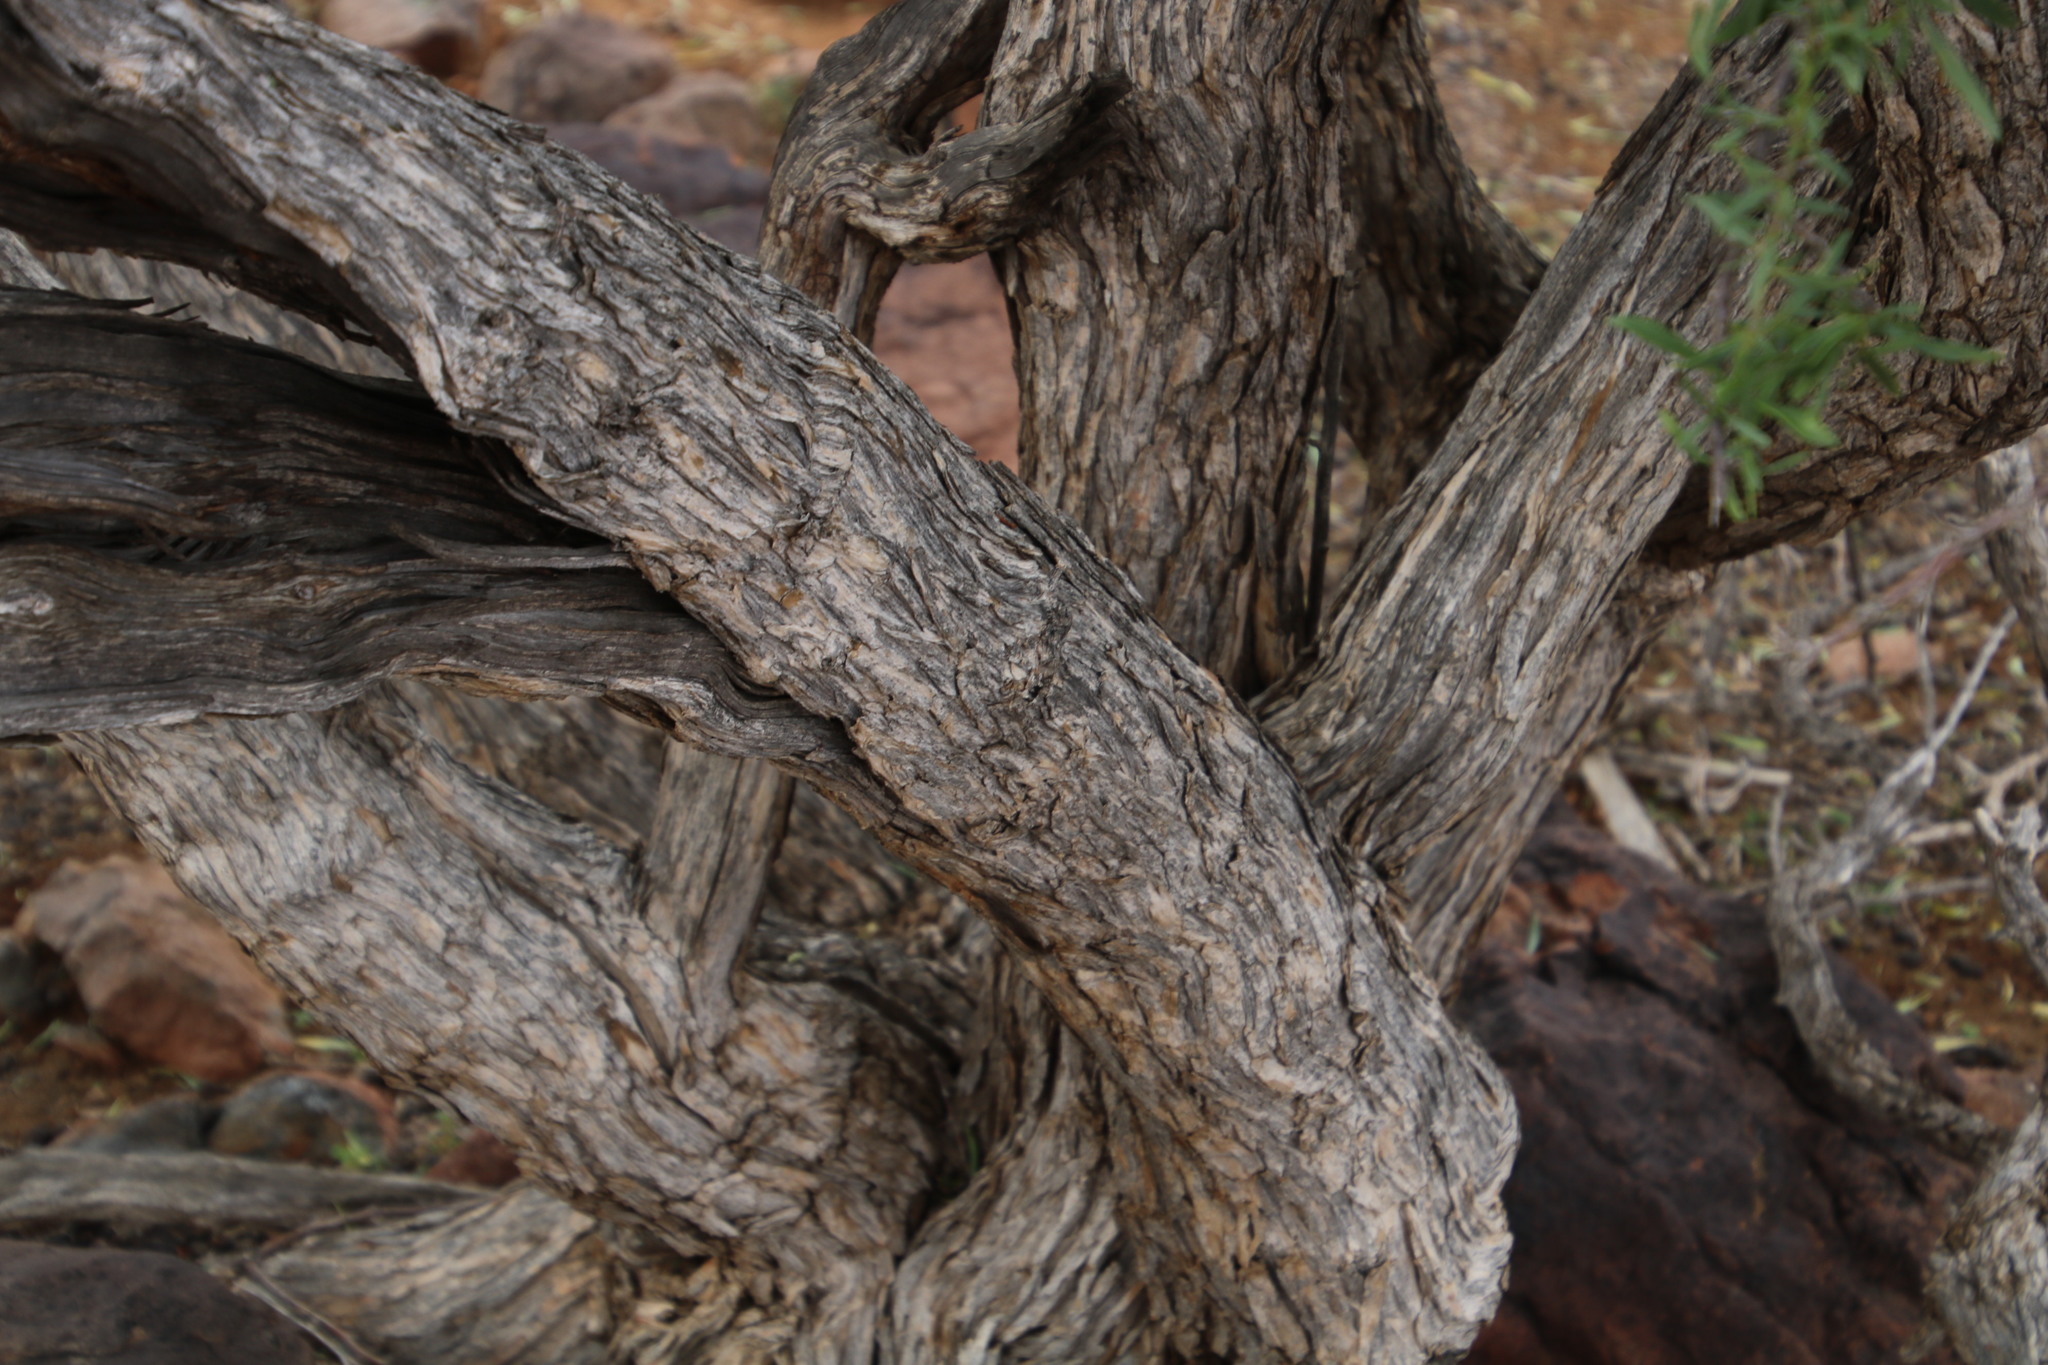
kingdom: Plantae
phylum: Tracheophyta
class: Magnoliopsida
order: Solanales
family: Solanaceae
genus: Lycium
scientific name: Lycium oxycarpum
